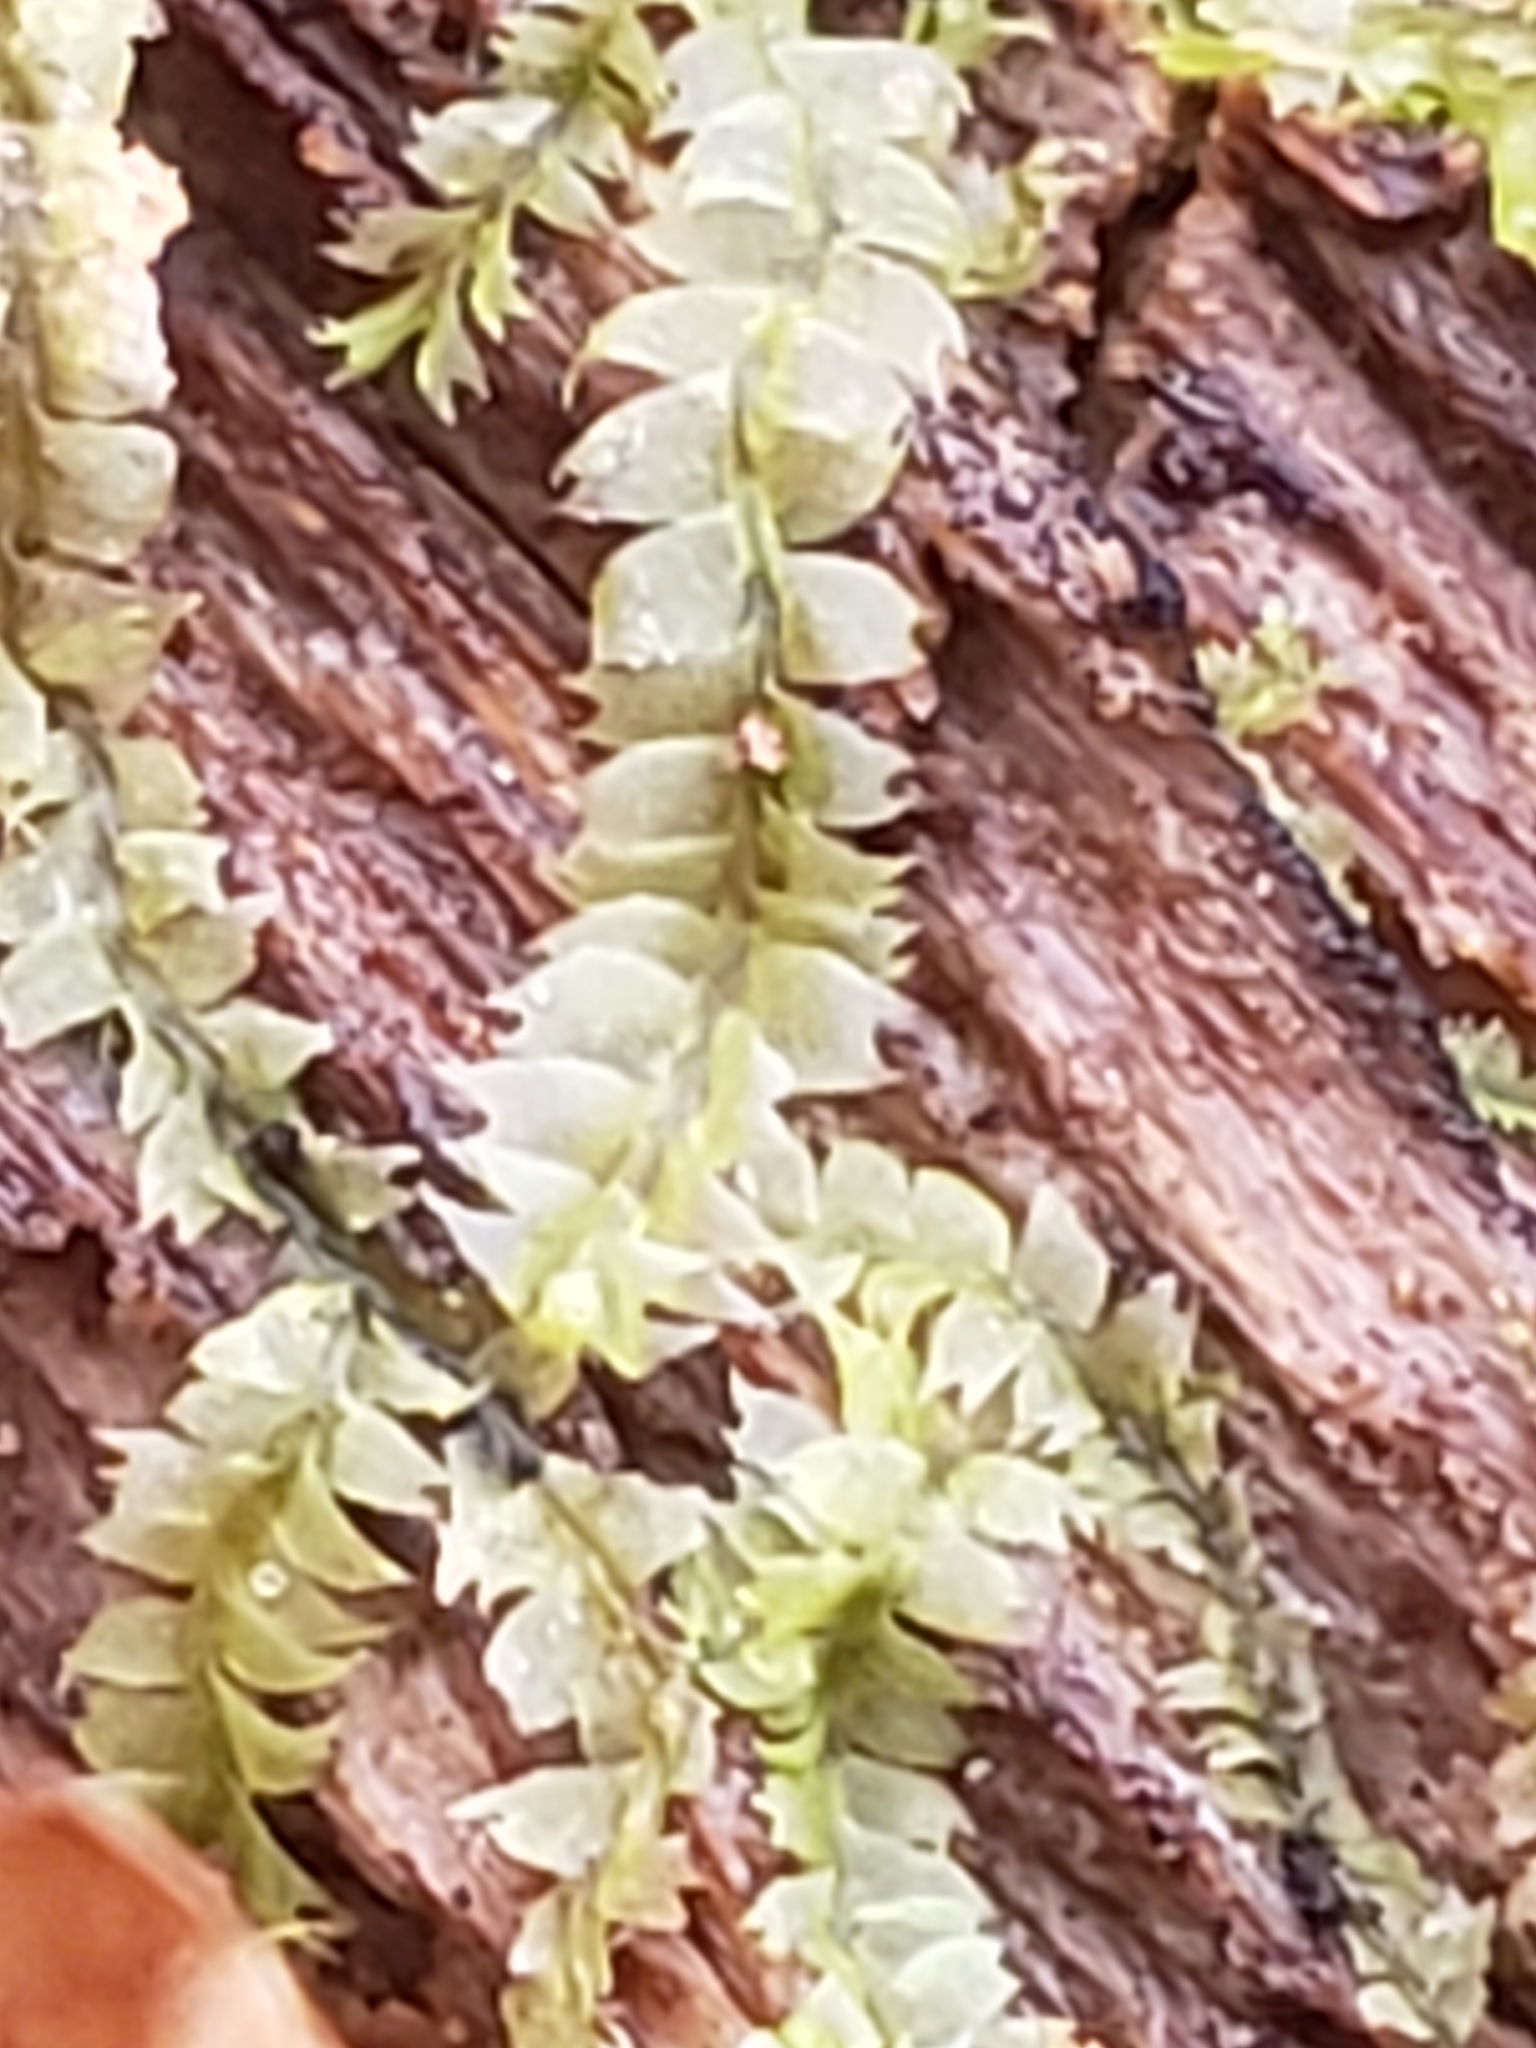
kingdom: Plantae
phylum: Marchantiophyta
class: Jungermanniopsida
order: Jungermanniales
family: Lophocoleaceae
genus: Lophocolea
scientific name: Lophocolea heterophylla
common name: Variable-leaved crestwort
